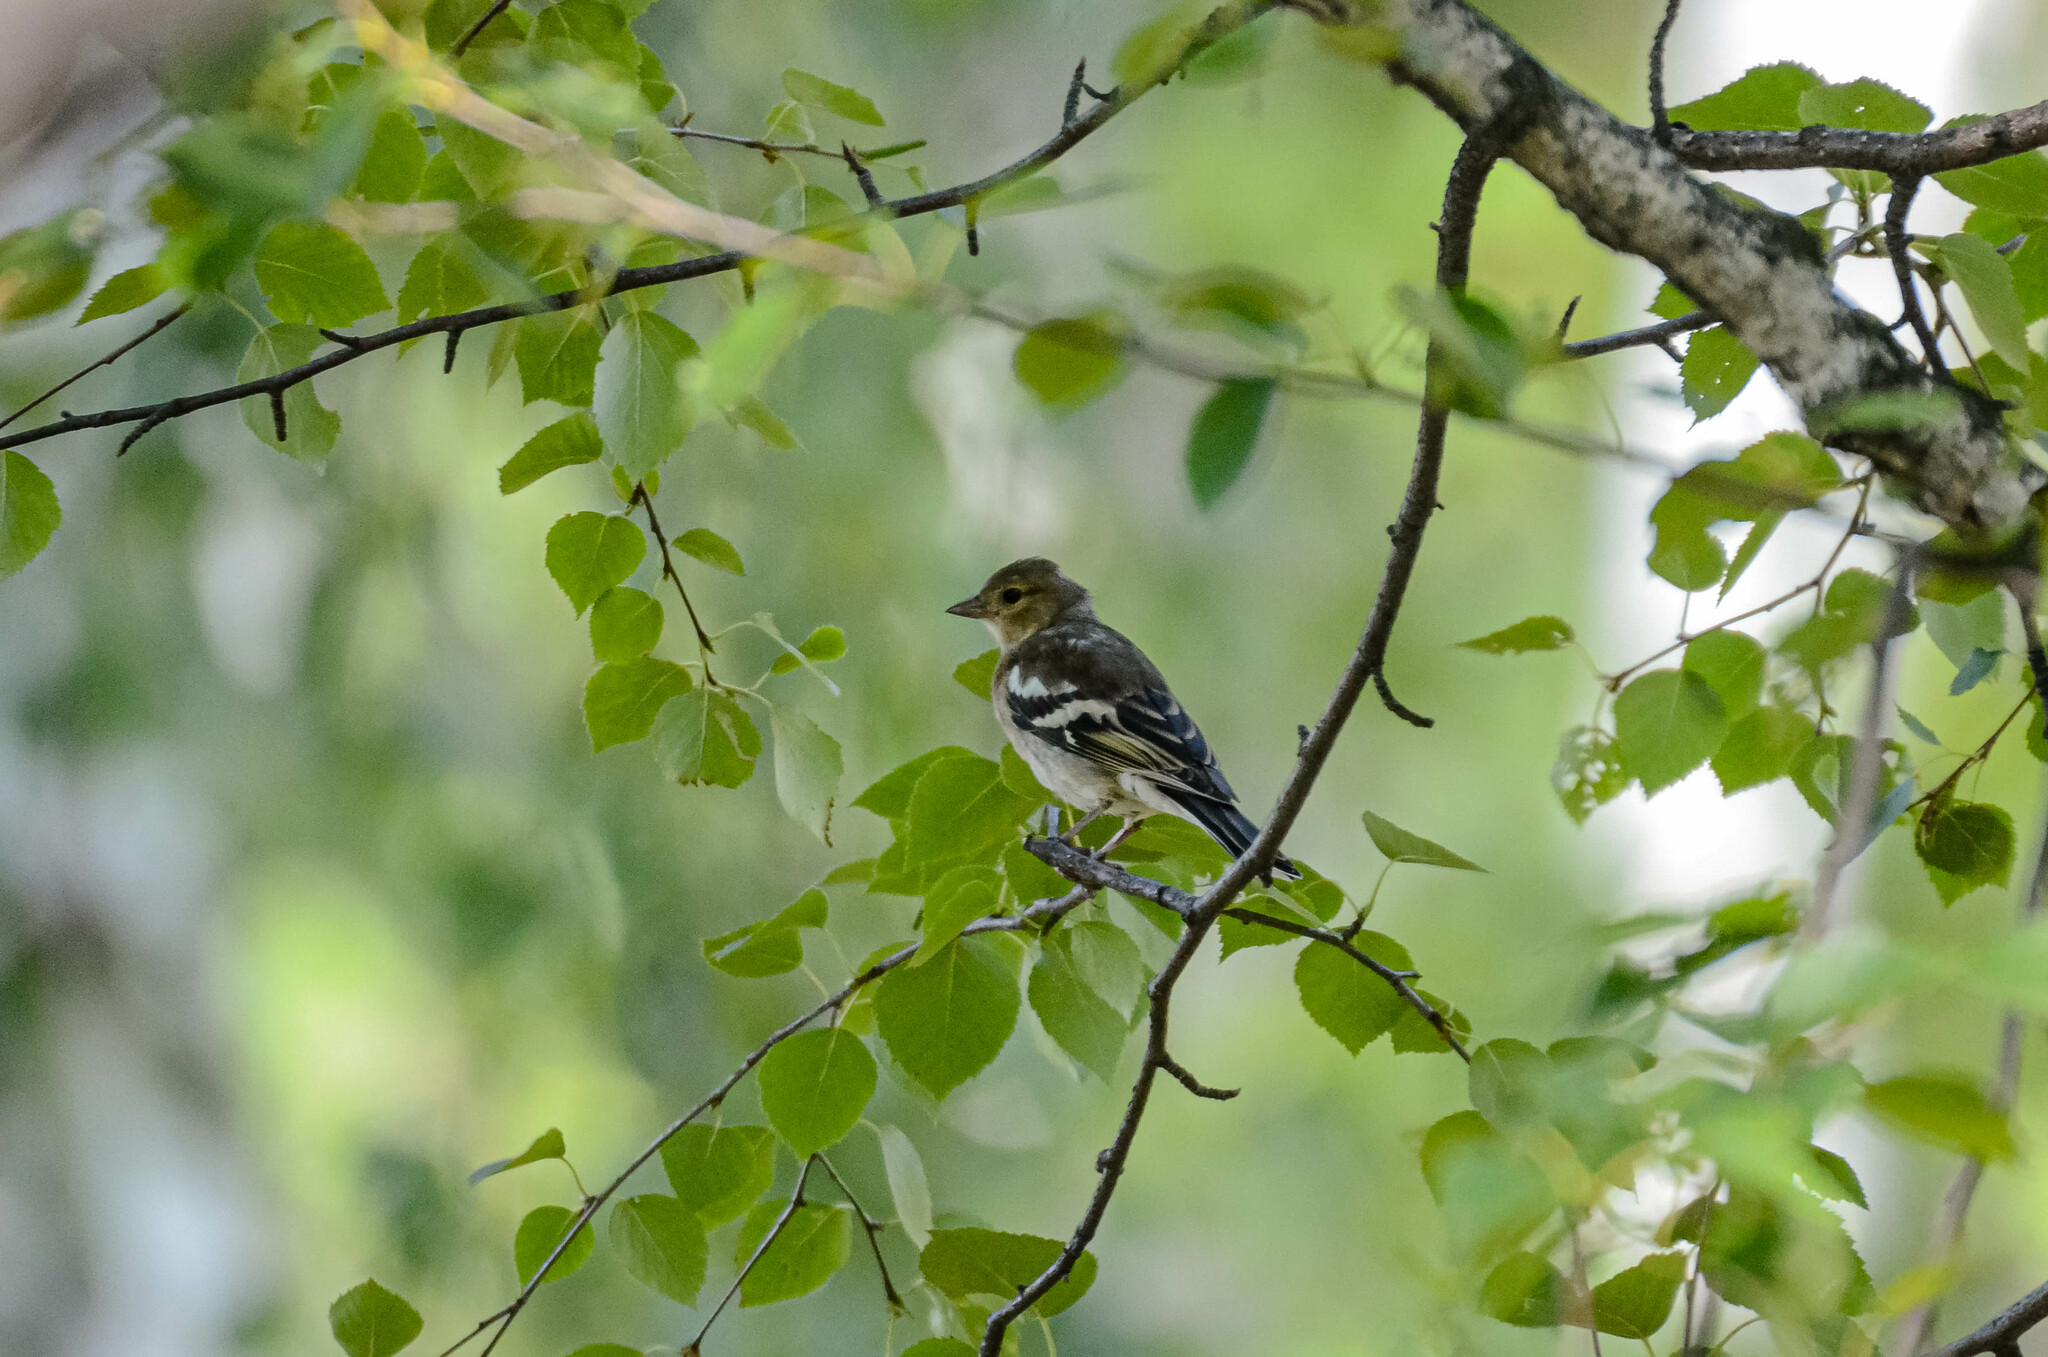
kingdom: Animalia
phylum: Chordata
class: Aves
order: Passeriformes
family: Fringillidae
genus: Fringilla
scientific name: Fringilla coelebs
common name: Common chaffinch
